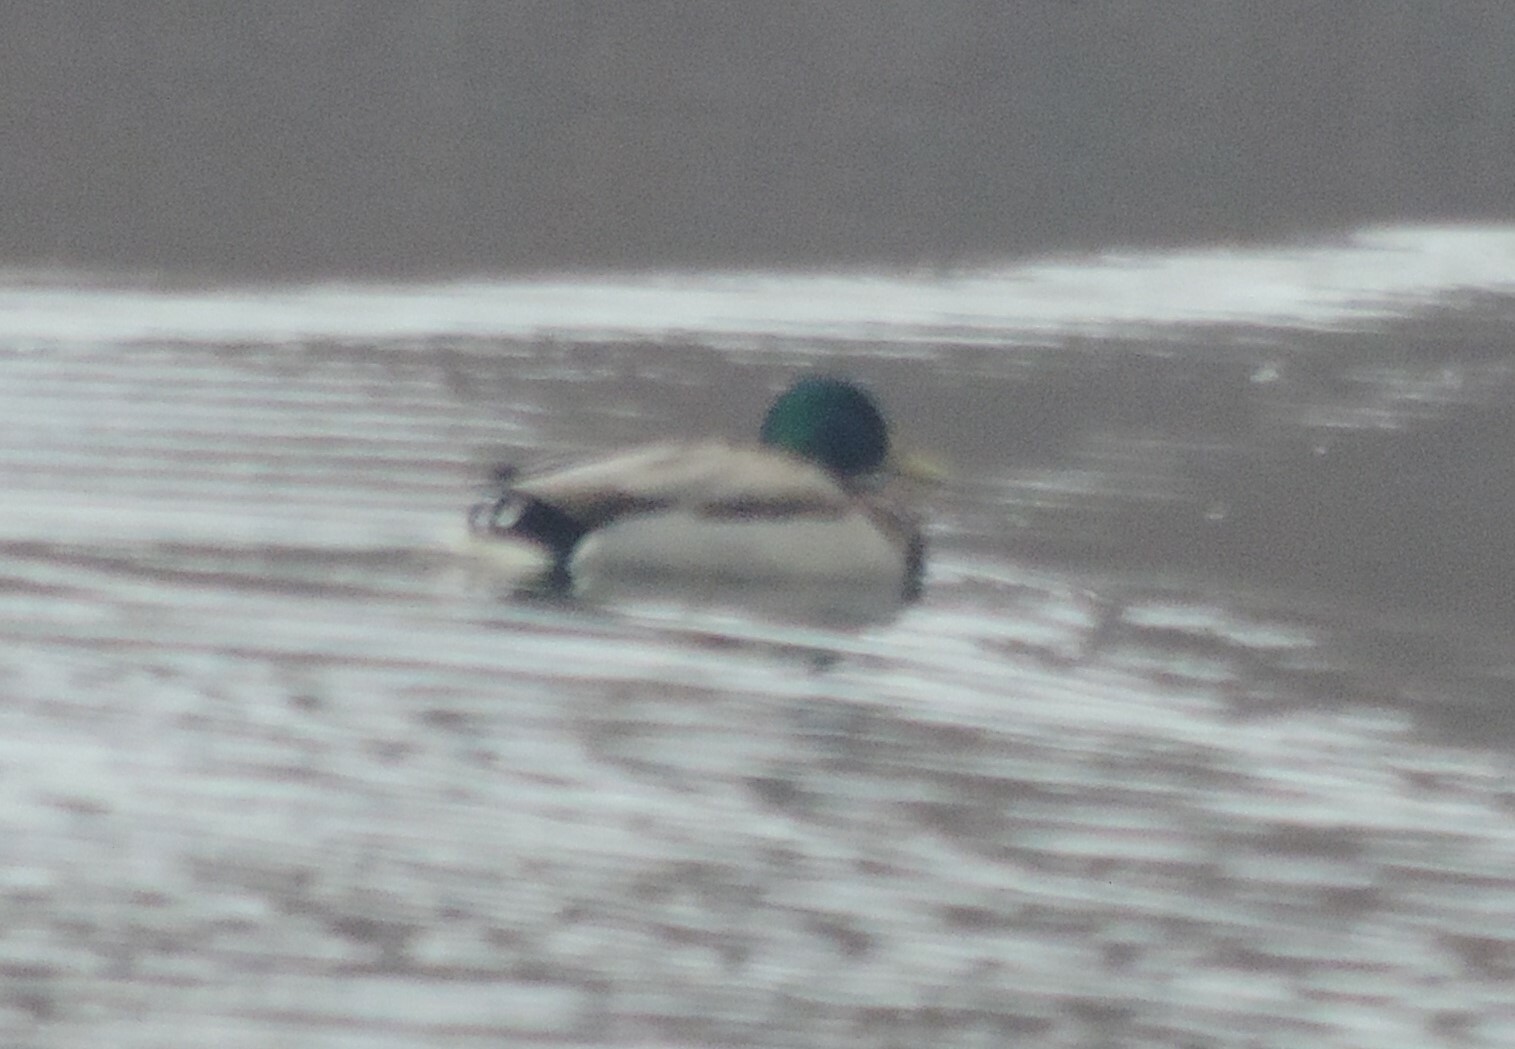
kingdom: Animalia
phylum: Chordata
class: Aves
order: Anseriformes
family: Anatidae
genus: Anas
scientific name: Anas platyrhynchos
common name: Mallard
